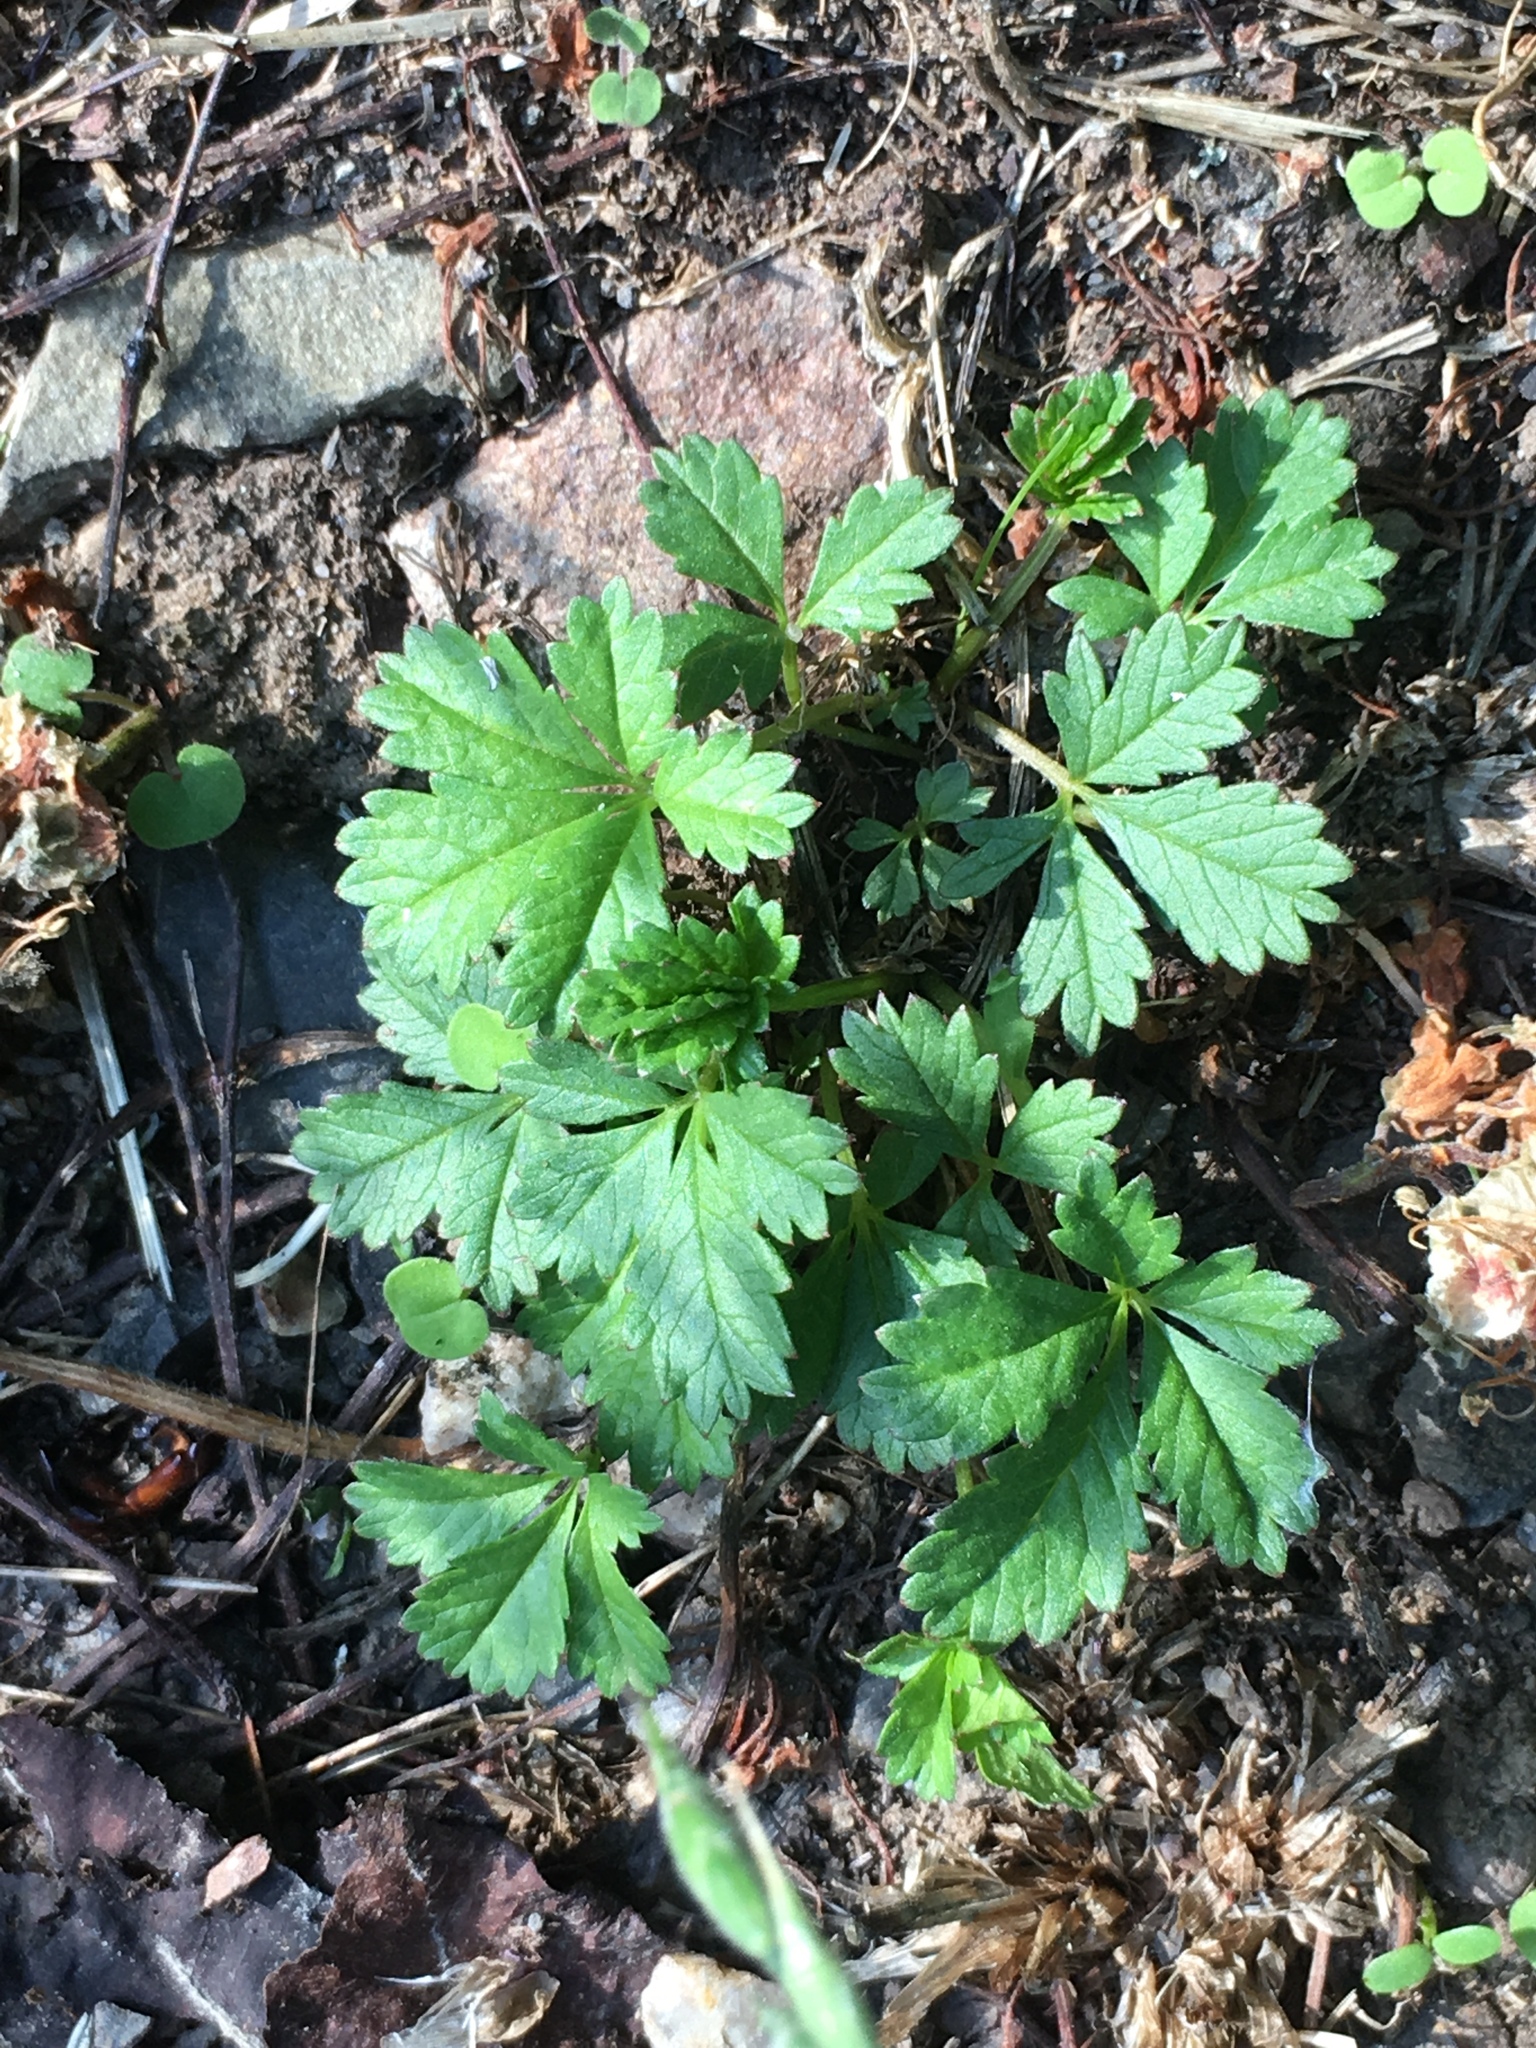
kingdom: Plantae
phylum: Tracheophyta
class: Magnoliopsida
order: Rosales
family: Rosaceae
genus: Potentilla
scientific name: Potentilla reptans
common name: Creeping cinquefoil
